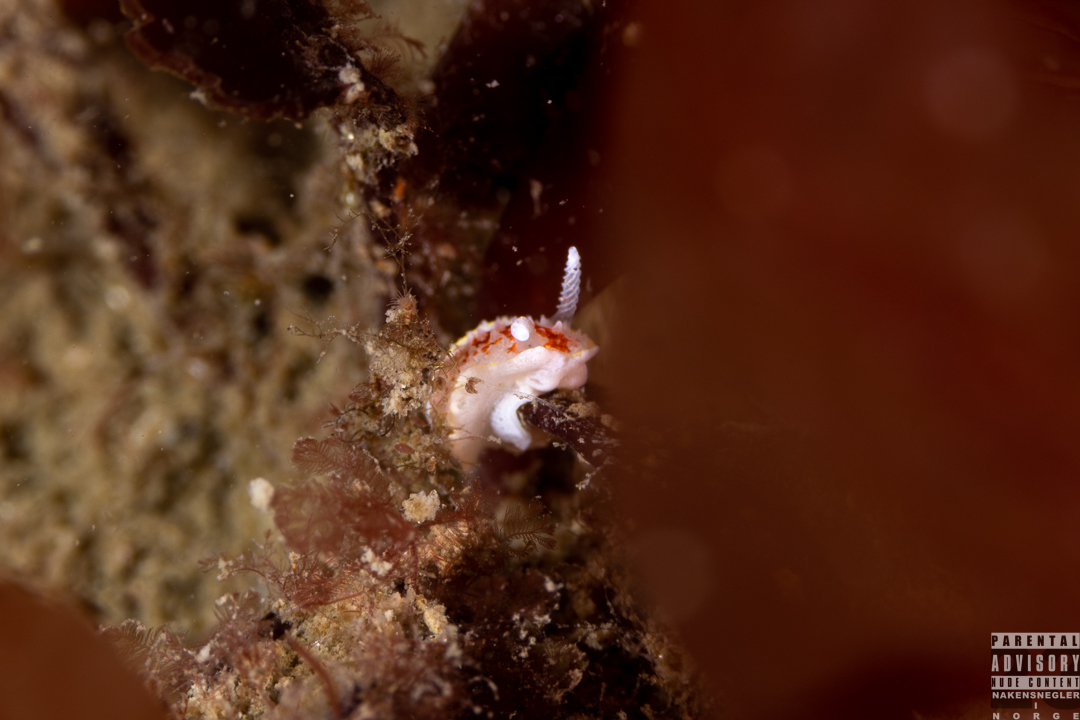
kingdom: Animalia
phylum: Mollusca
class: Gastropoda
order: Nudibranchia
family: Calycidorididae
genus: Diaphorodoris
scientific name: Diaphorodoris luteocincta
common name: Fried egg nudibranch
